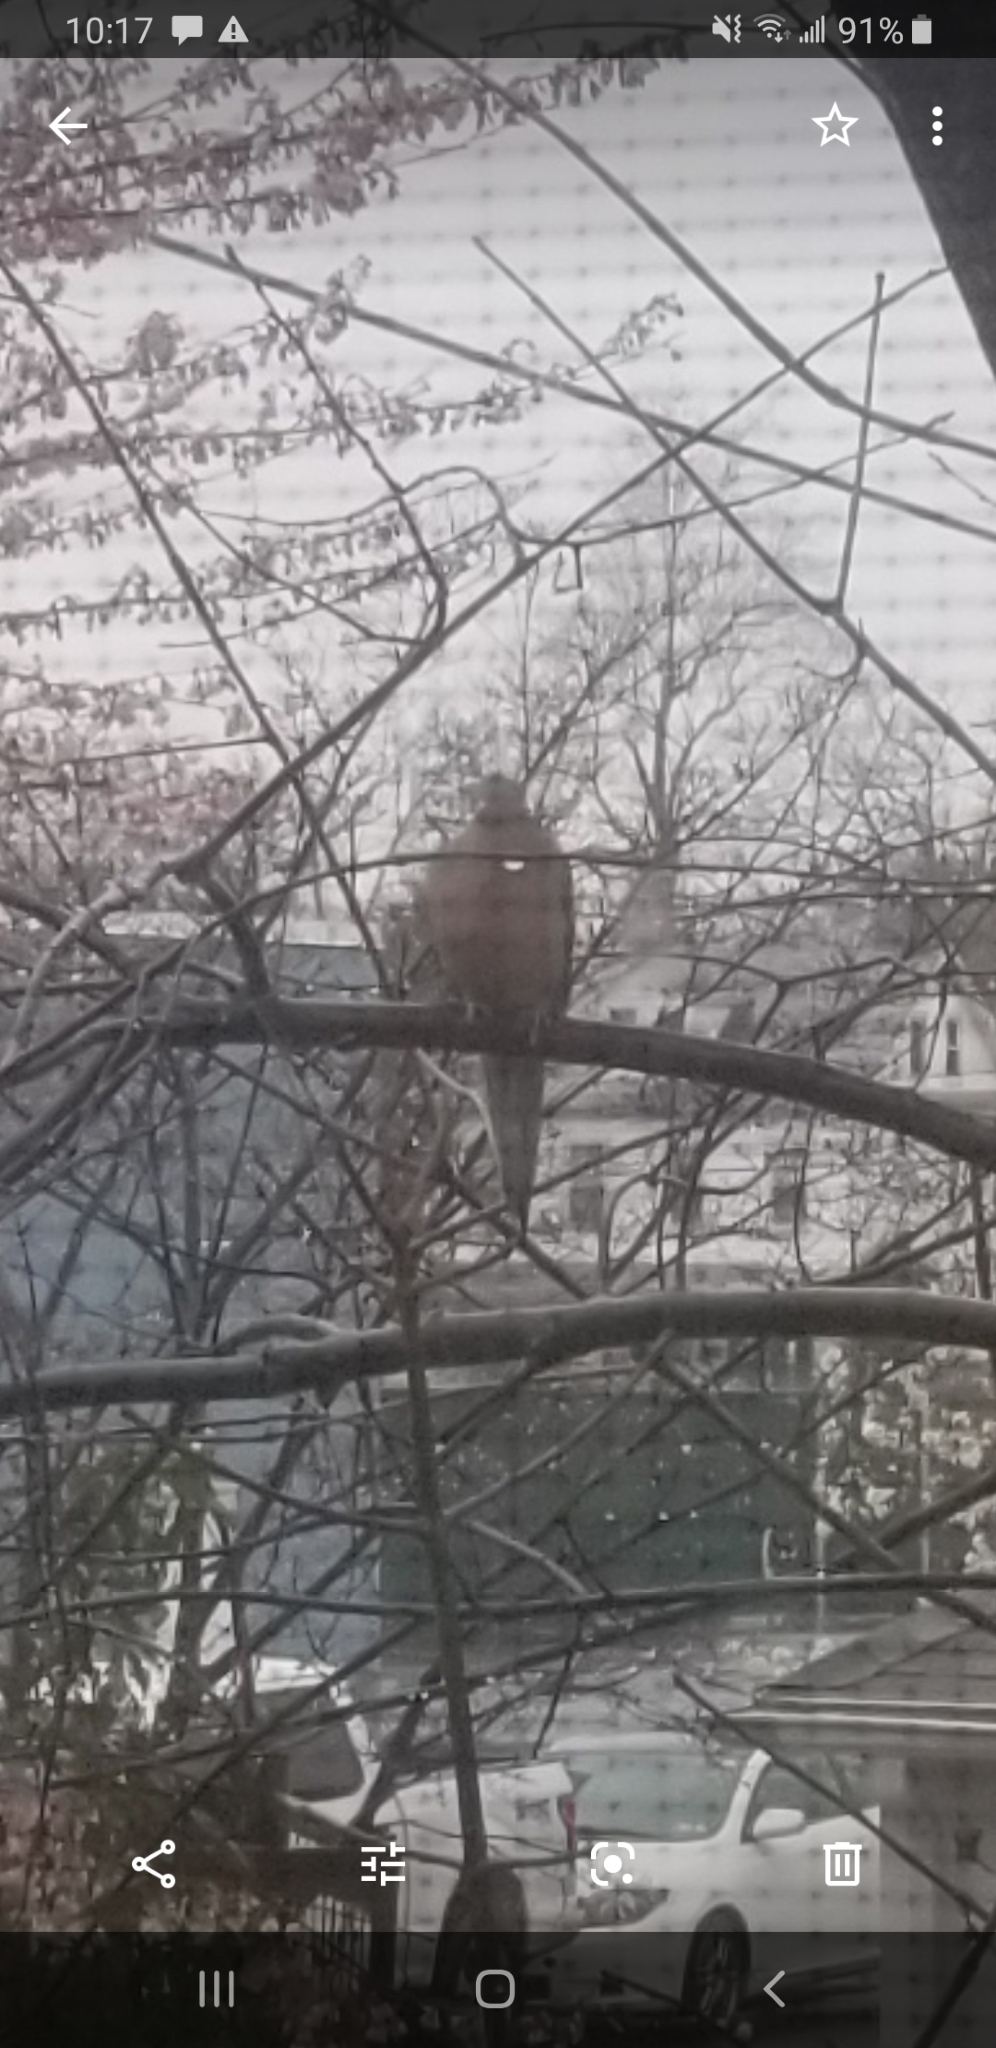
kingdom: Animalia
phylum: Chordata
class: Aves
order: Columbiformes
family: Columbidae
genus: Zenaida
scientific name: Zenaida macroura
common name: Mourning dove
